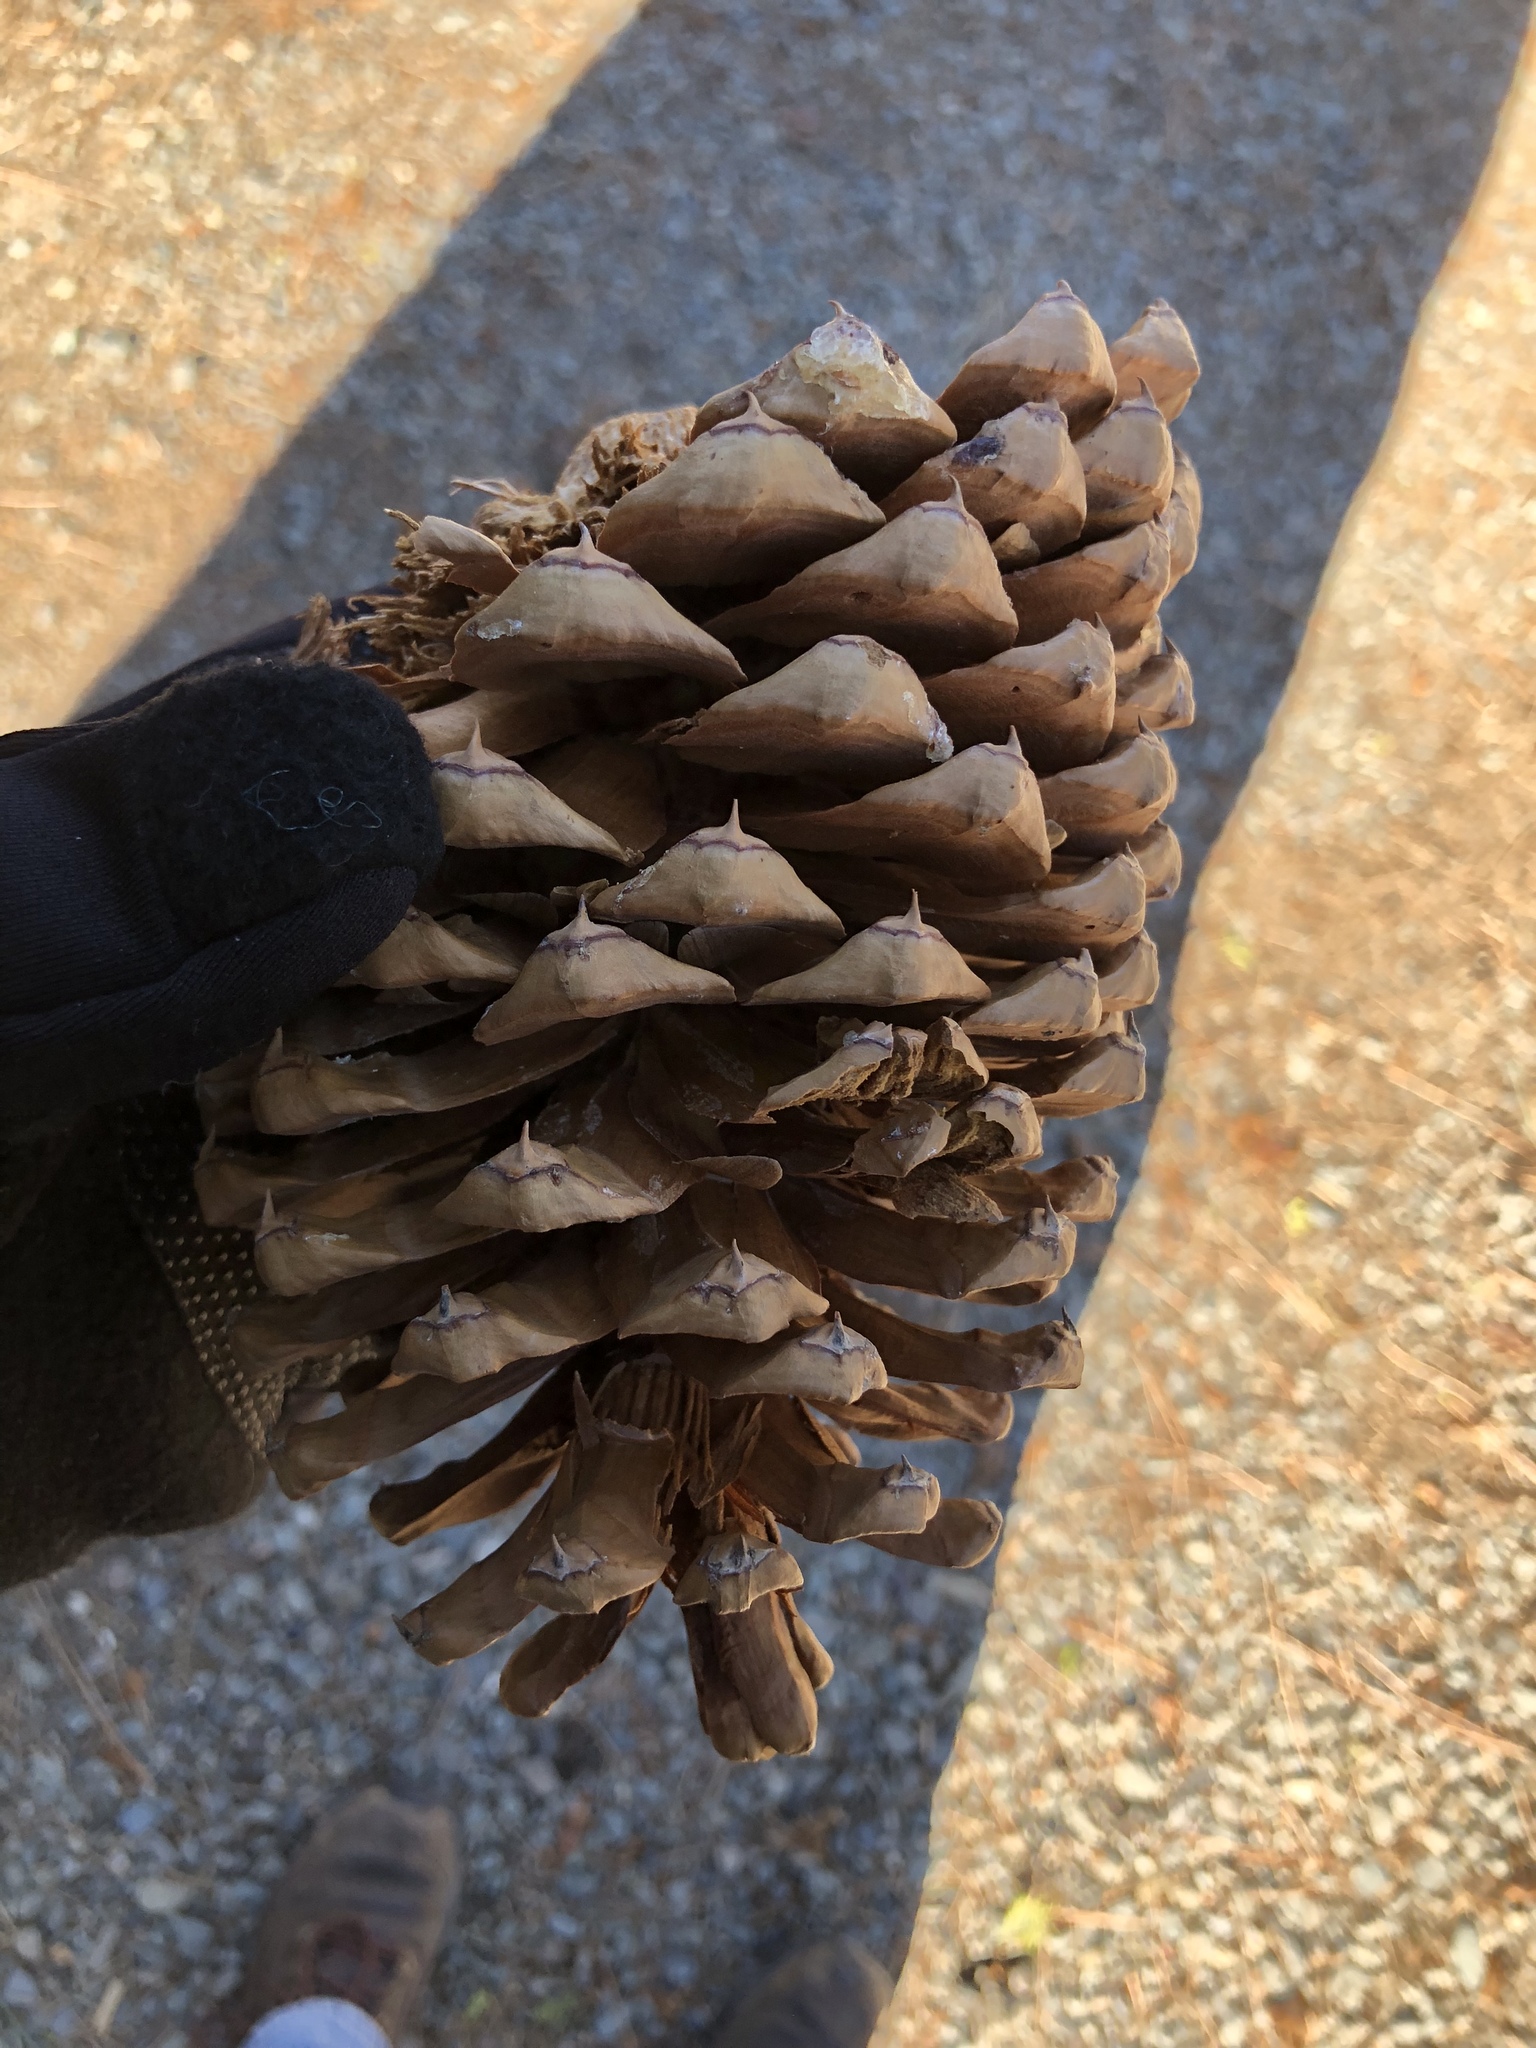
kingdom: Plantae
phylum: Tracheophyta
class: Pinopsida
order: Pinales
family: Pinaceae
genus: Pinus
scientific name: Pinus jeffreyi
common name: Jeffrey pine
